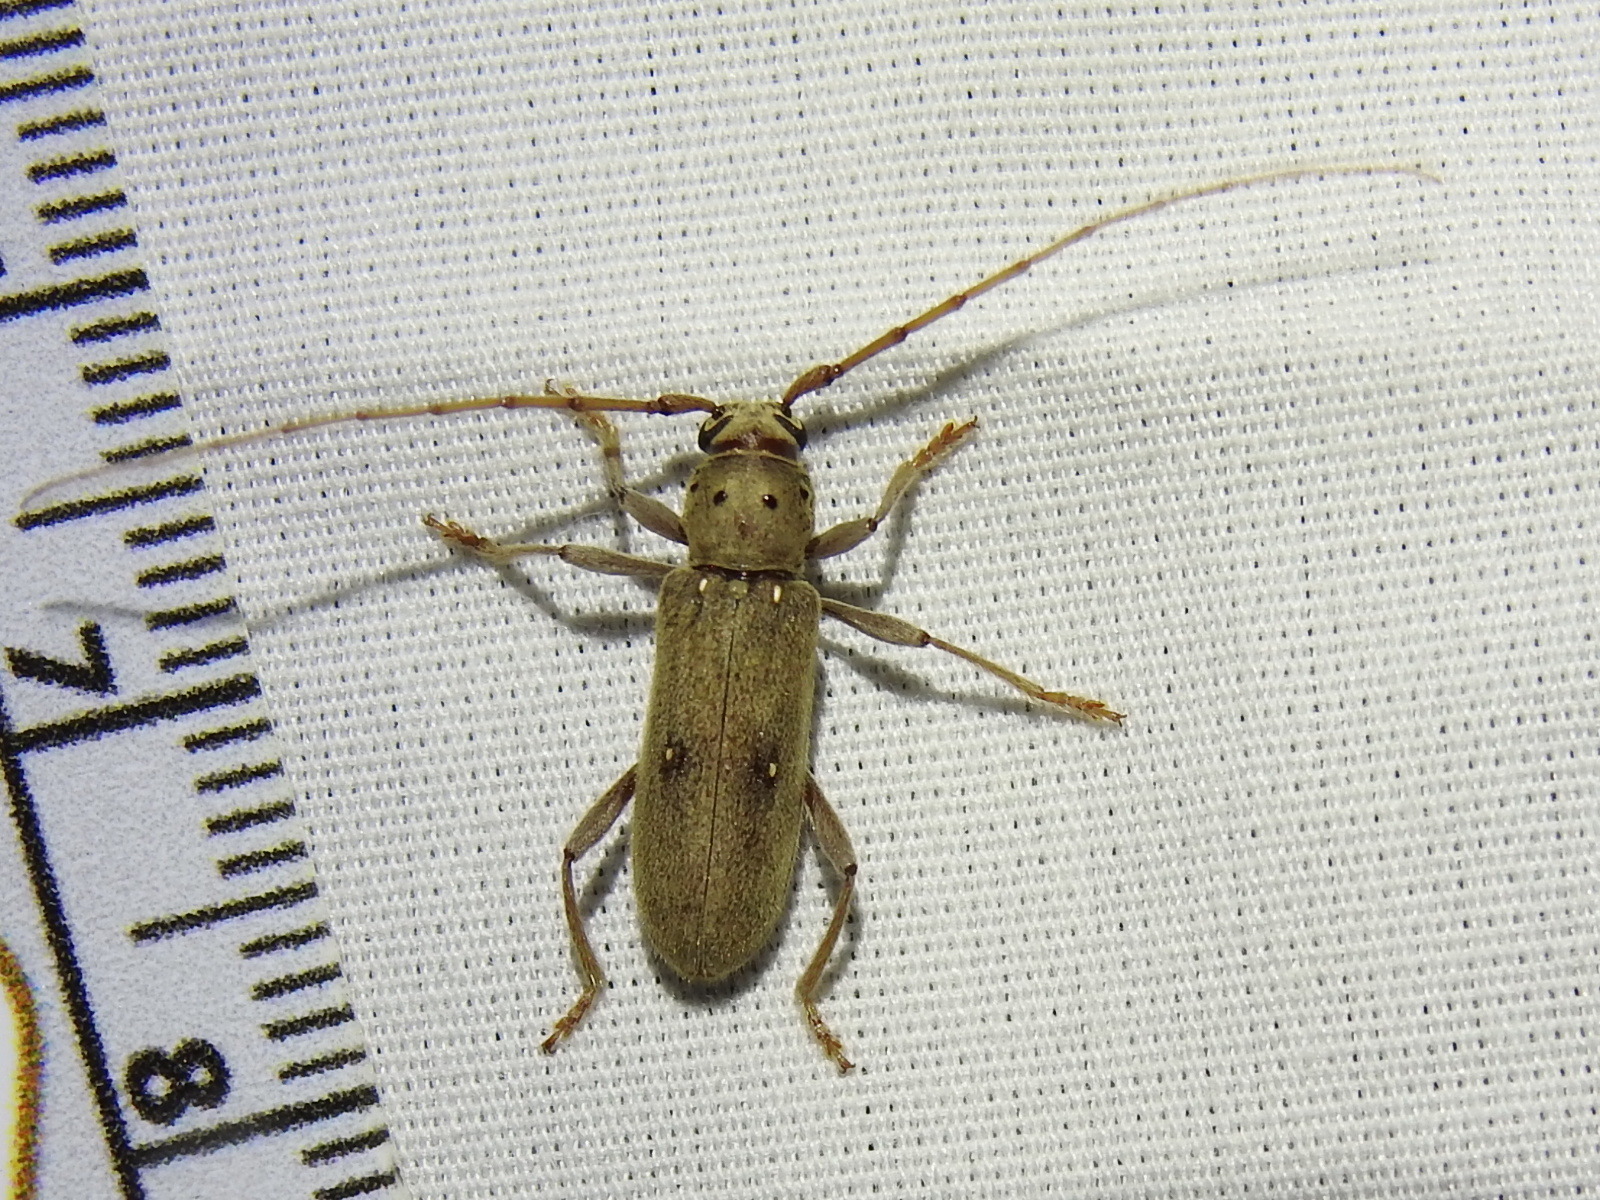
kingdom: Animalia
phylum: Arthropoda
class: Insecta
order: Coleoptera
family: Cerambycidae
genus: Eburia
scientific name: Eburia mutica
